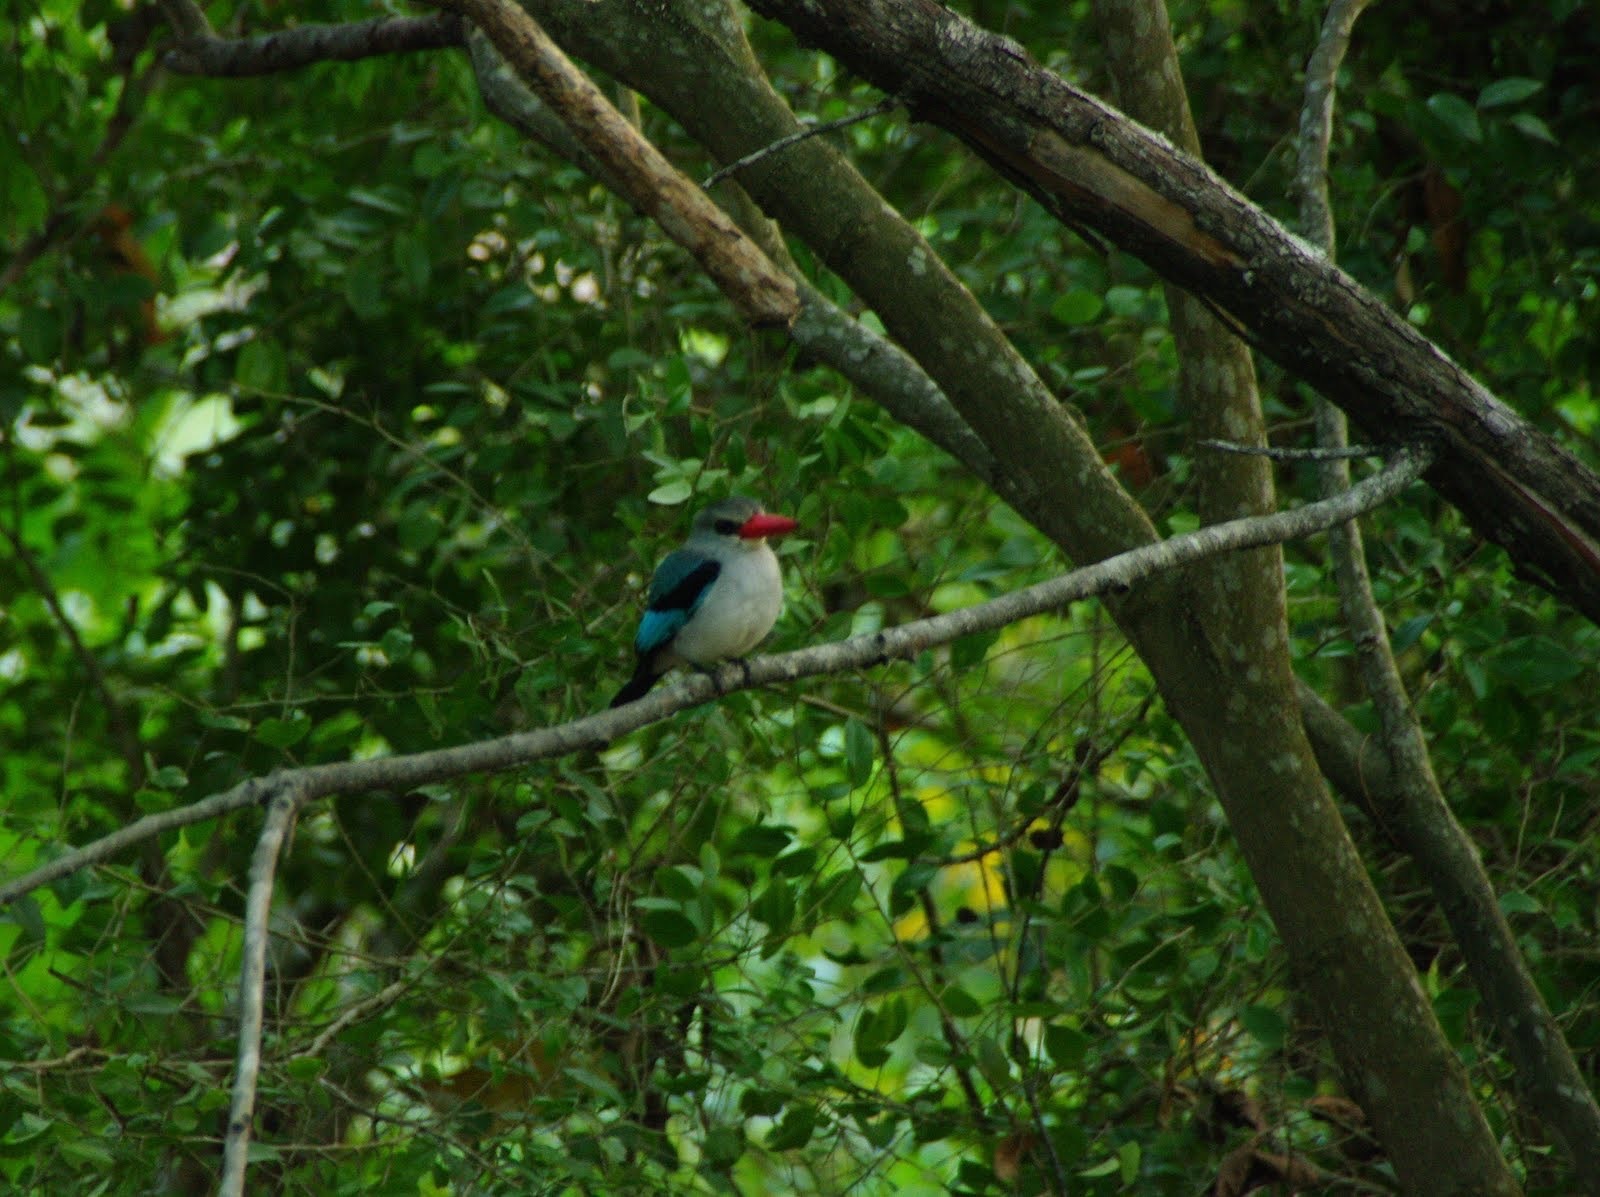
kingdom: Animalia
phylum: Chordata
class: Aves
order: Coraciiformes
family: Alcedinidae
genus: Halcyon
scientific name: Halcyon senegaloides
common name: Mangrove kingfisher
